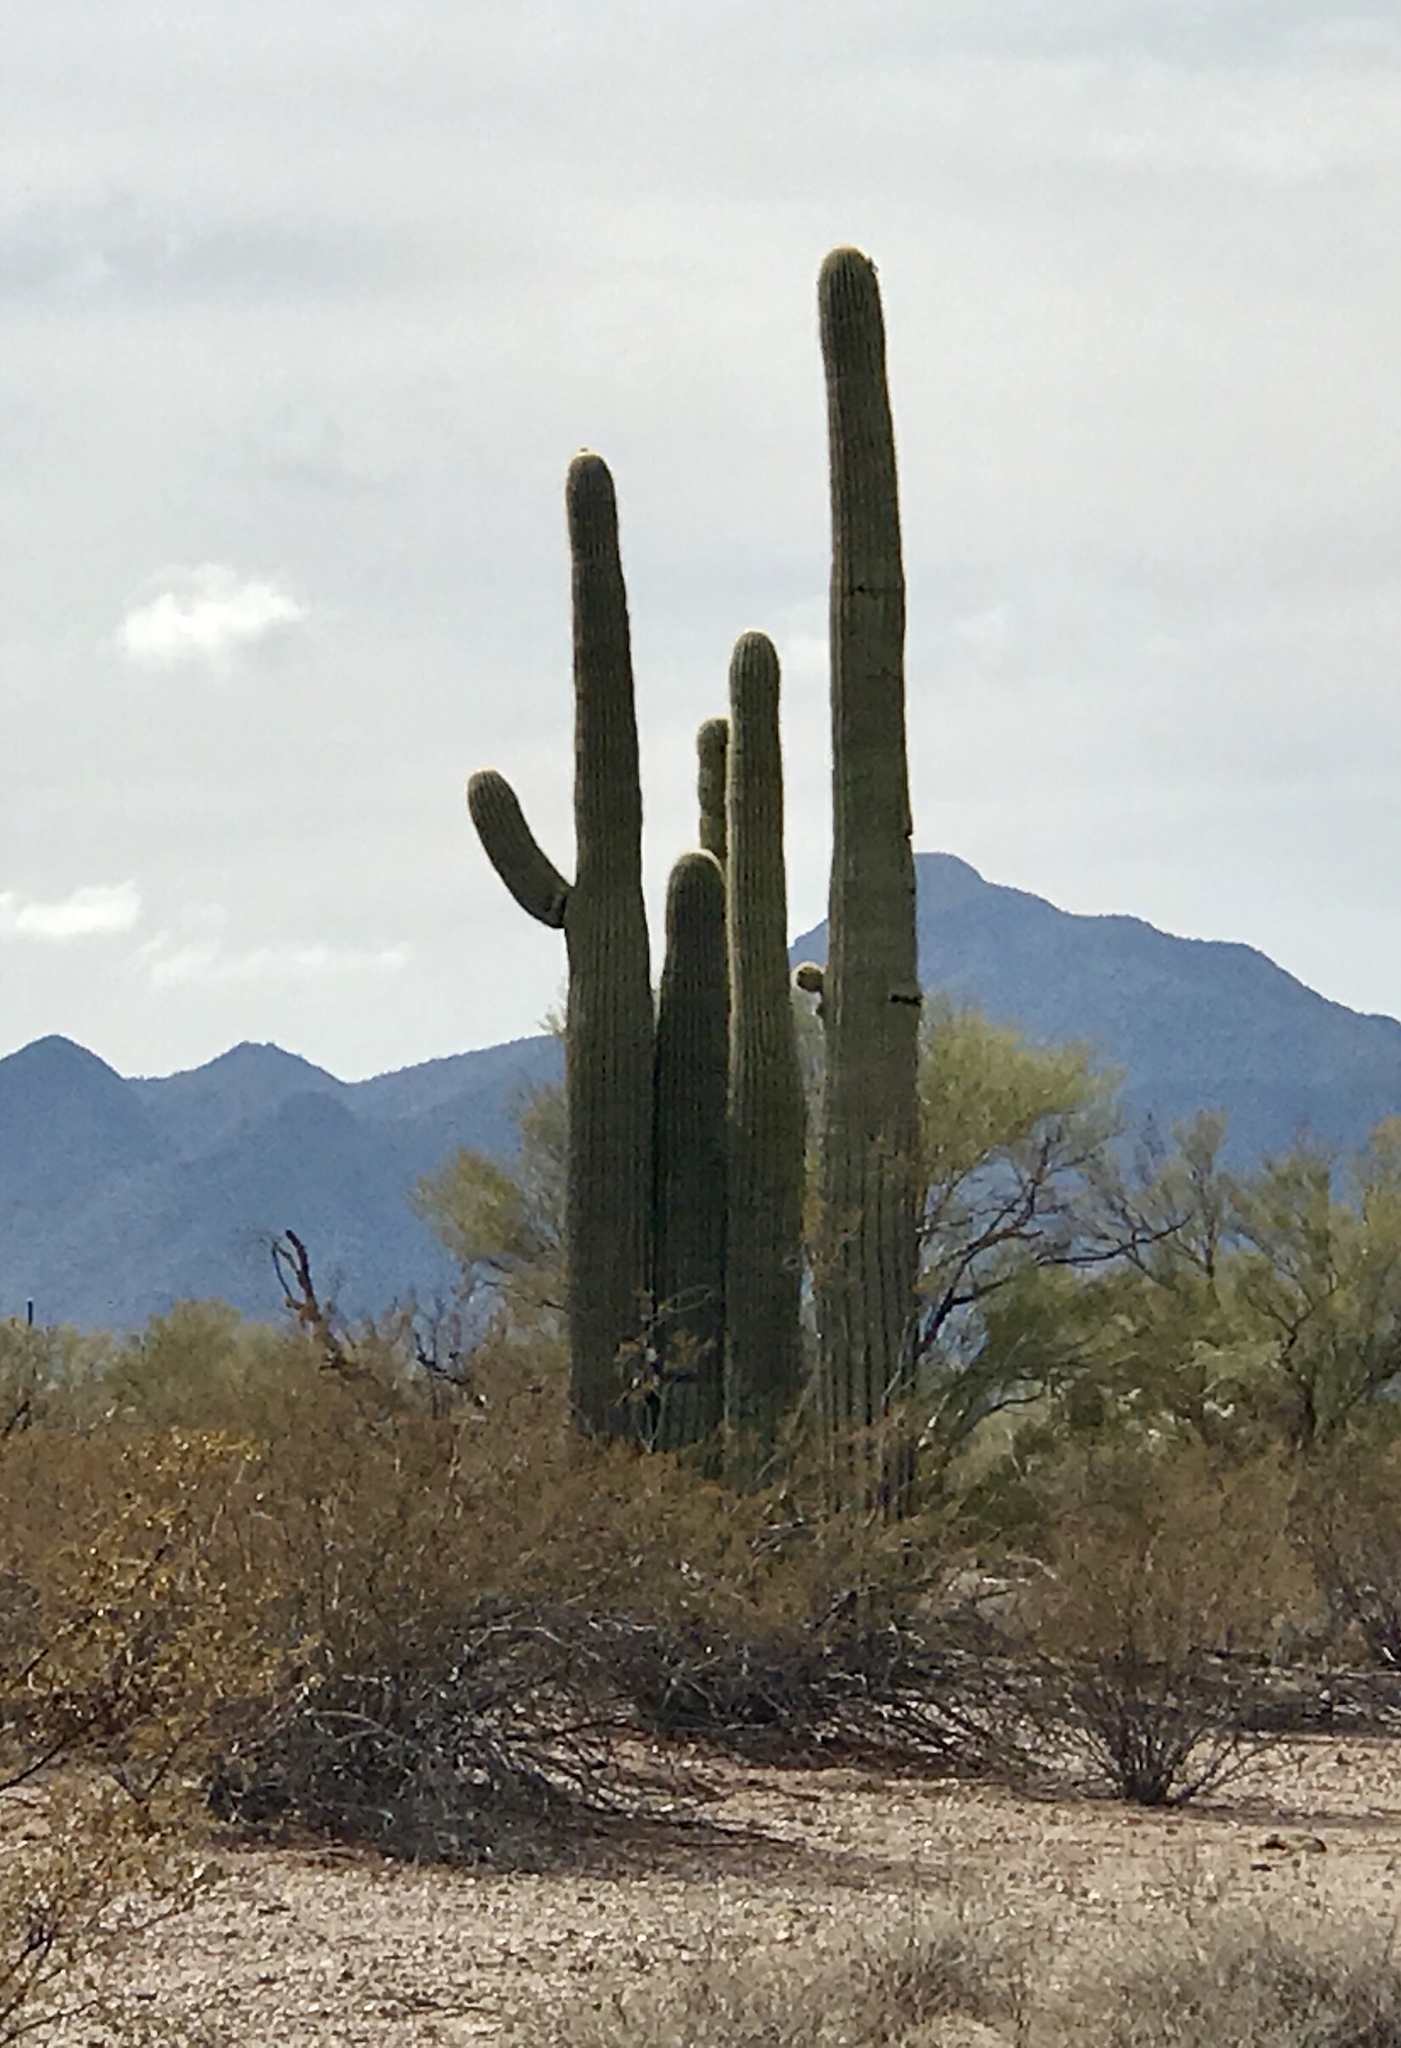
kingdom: Plantae
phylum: Tracheophyta
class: Magnoliopsida
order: Caryophyllales
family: Cactaceae
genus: Carnegiea
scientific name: Carnegiea gigantea
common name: Saguaro
